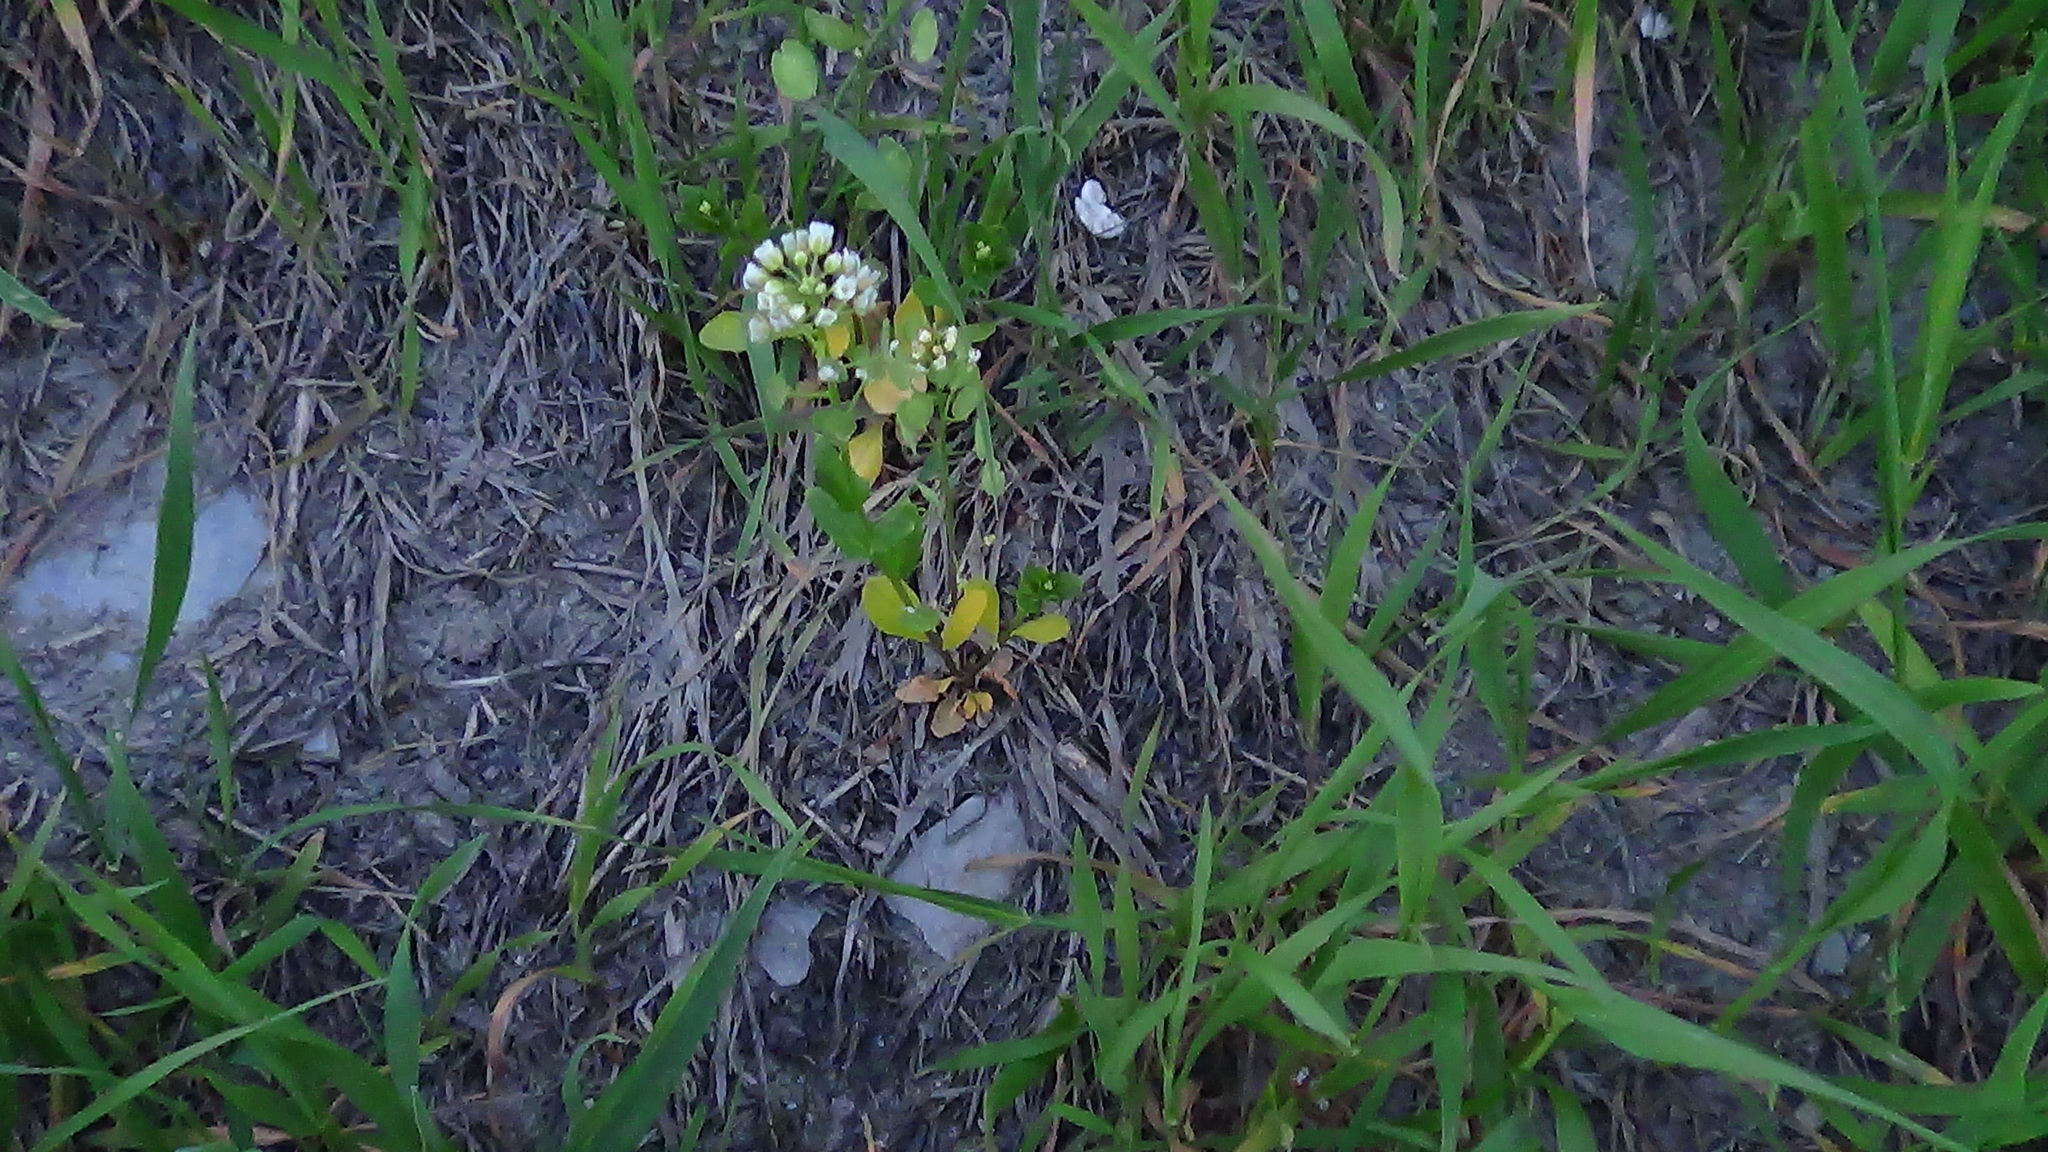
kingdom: Plantae
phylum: Tracheophyta
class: Magnoliopsida
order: Brassicales
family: Brassicaceae
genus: Thlaspi
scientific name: Thlaspi arvense
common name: Field pennycress
